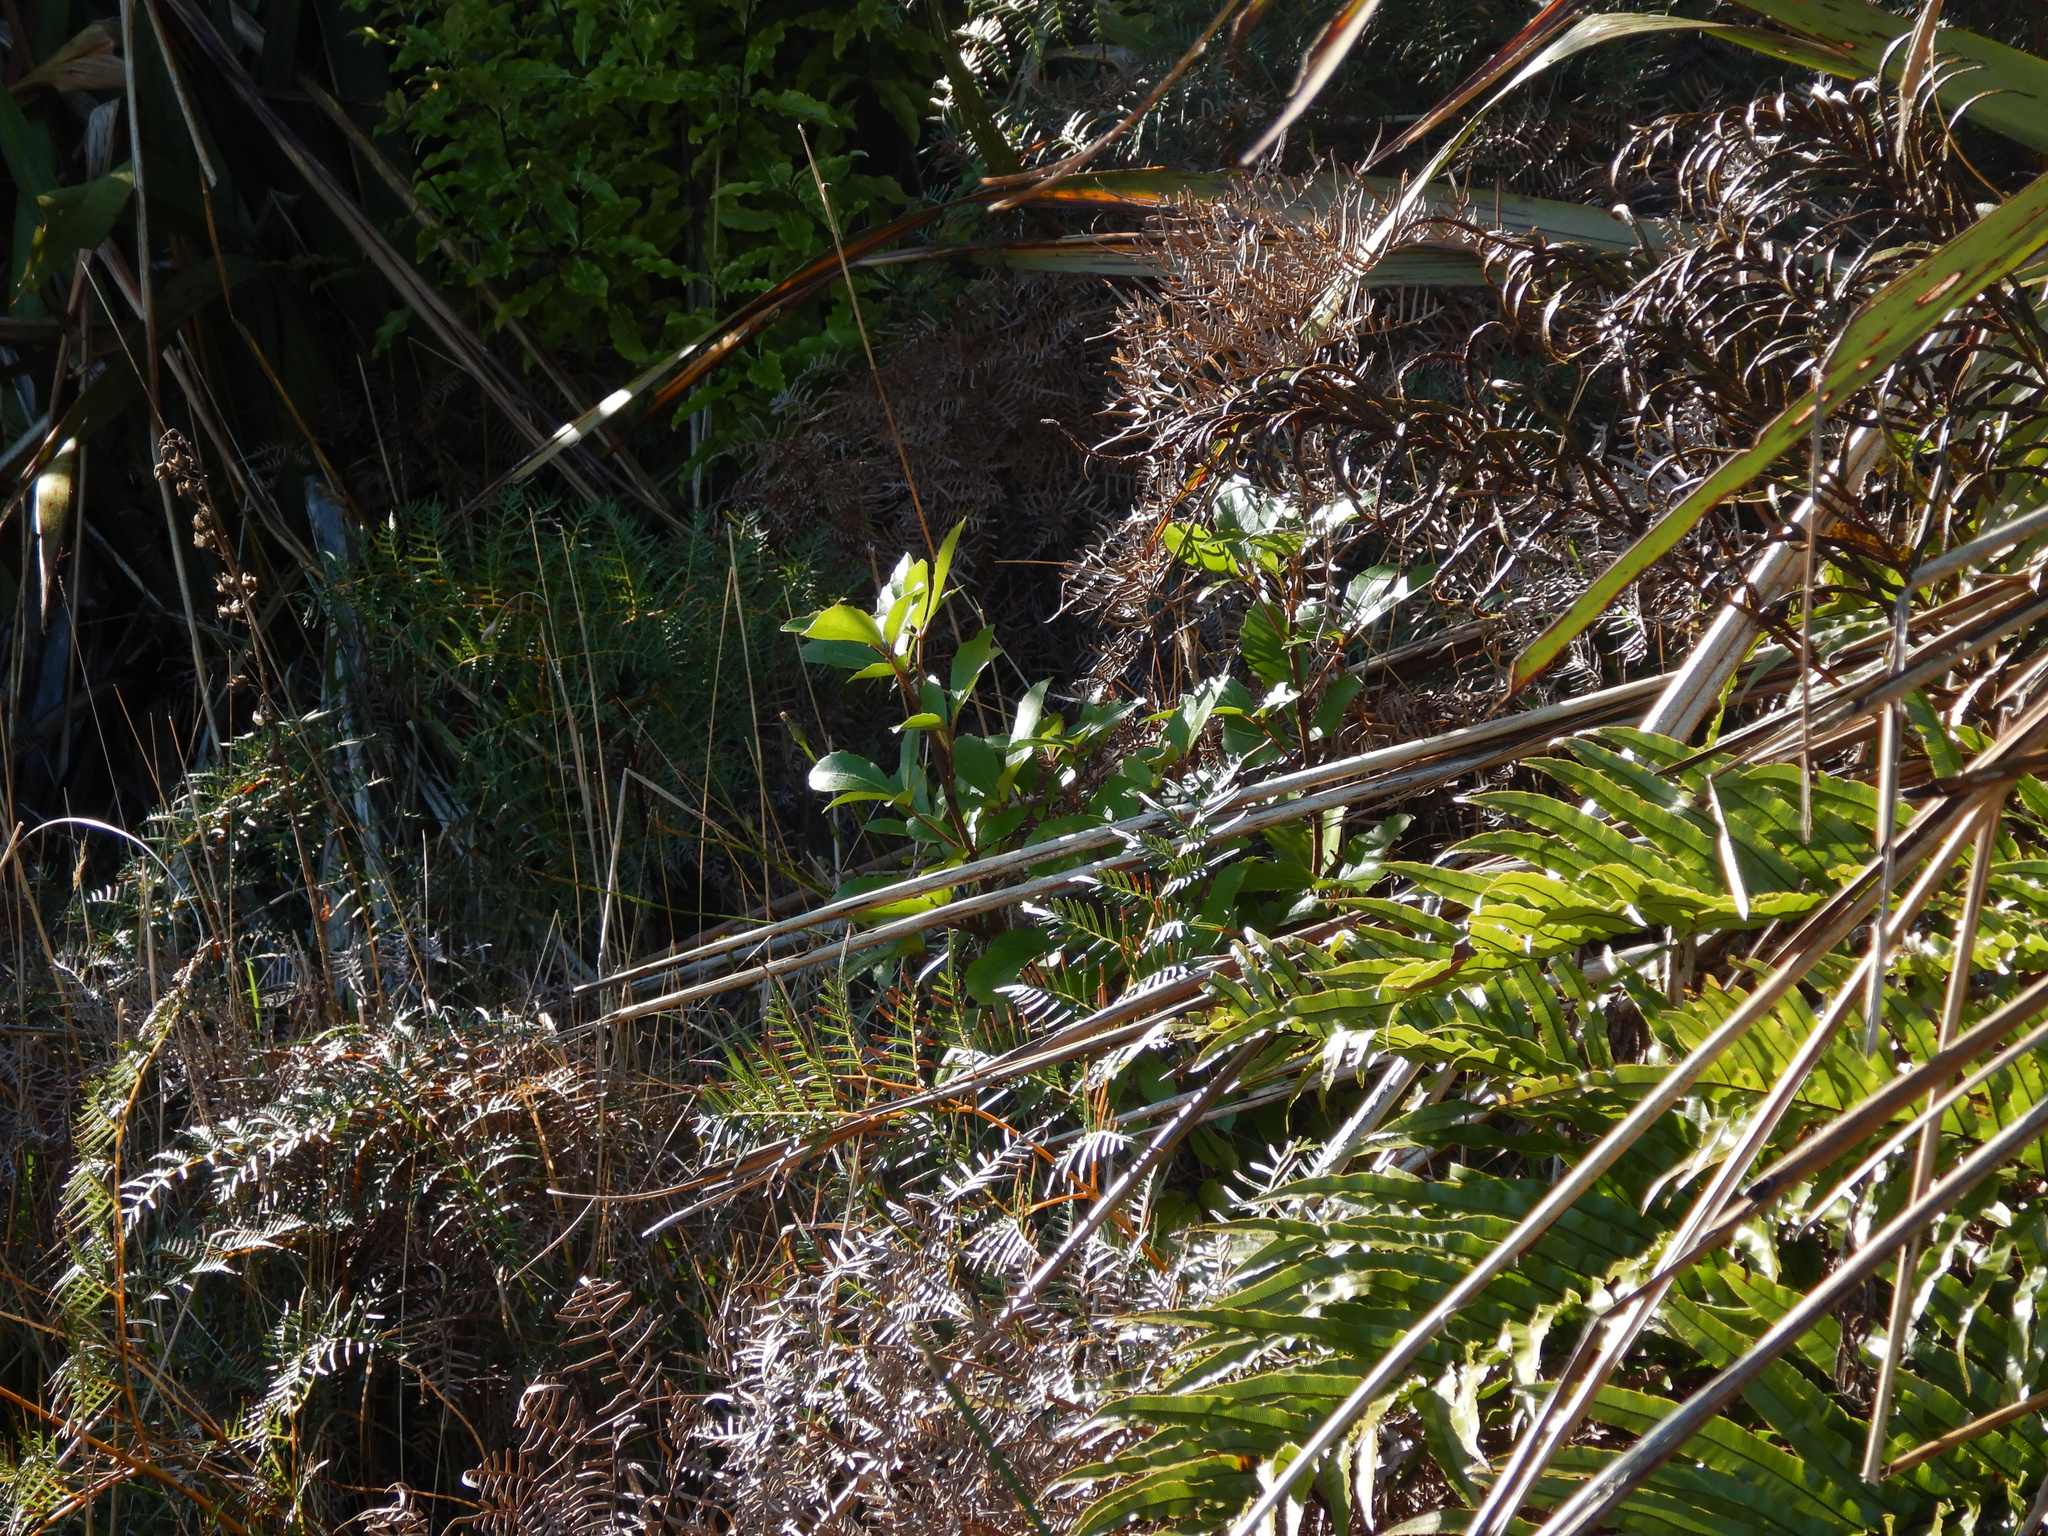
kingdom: Plantae
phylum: Tracheophyta
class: Magnoliopsida
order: Apiales
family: Araliaceae
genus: Neopanax
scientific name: Neopanax arboreus
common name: Five-fingers
